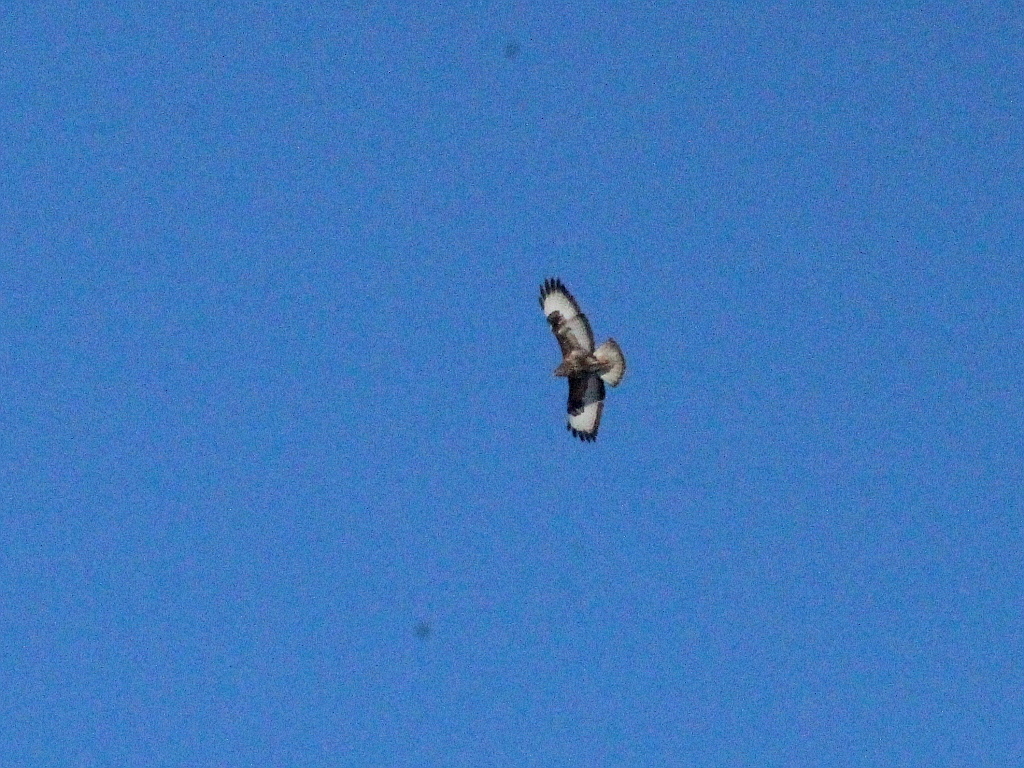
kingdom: Animalia
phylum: Chordata
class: Aves
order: Accipitriformes
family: Accipitridae
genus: Buteo
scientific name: Buteo buteo
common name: Common buzzard
